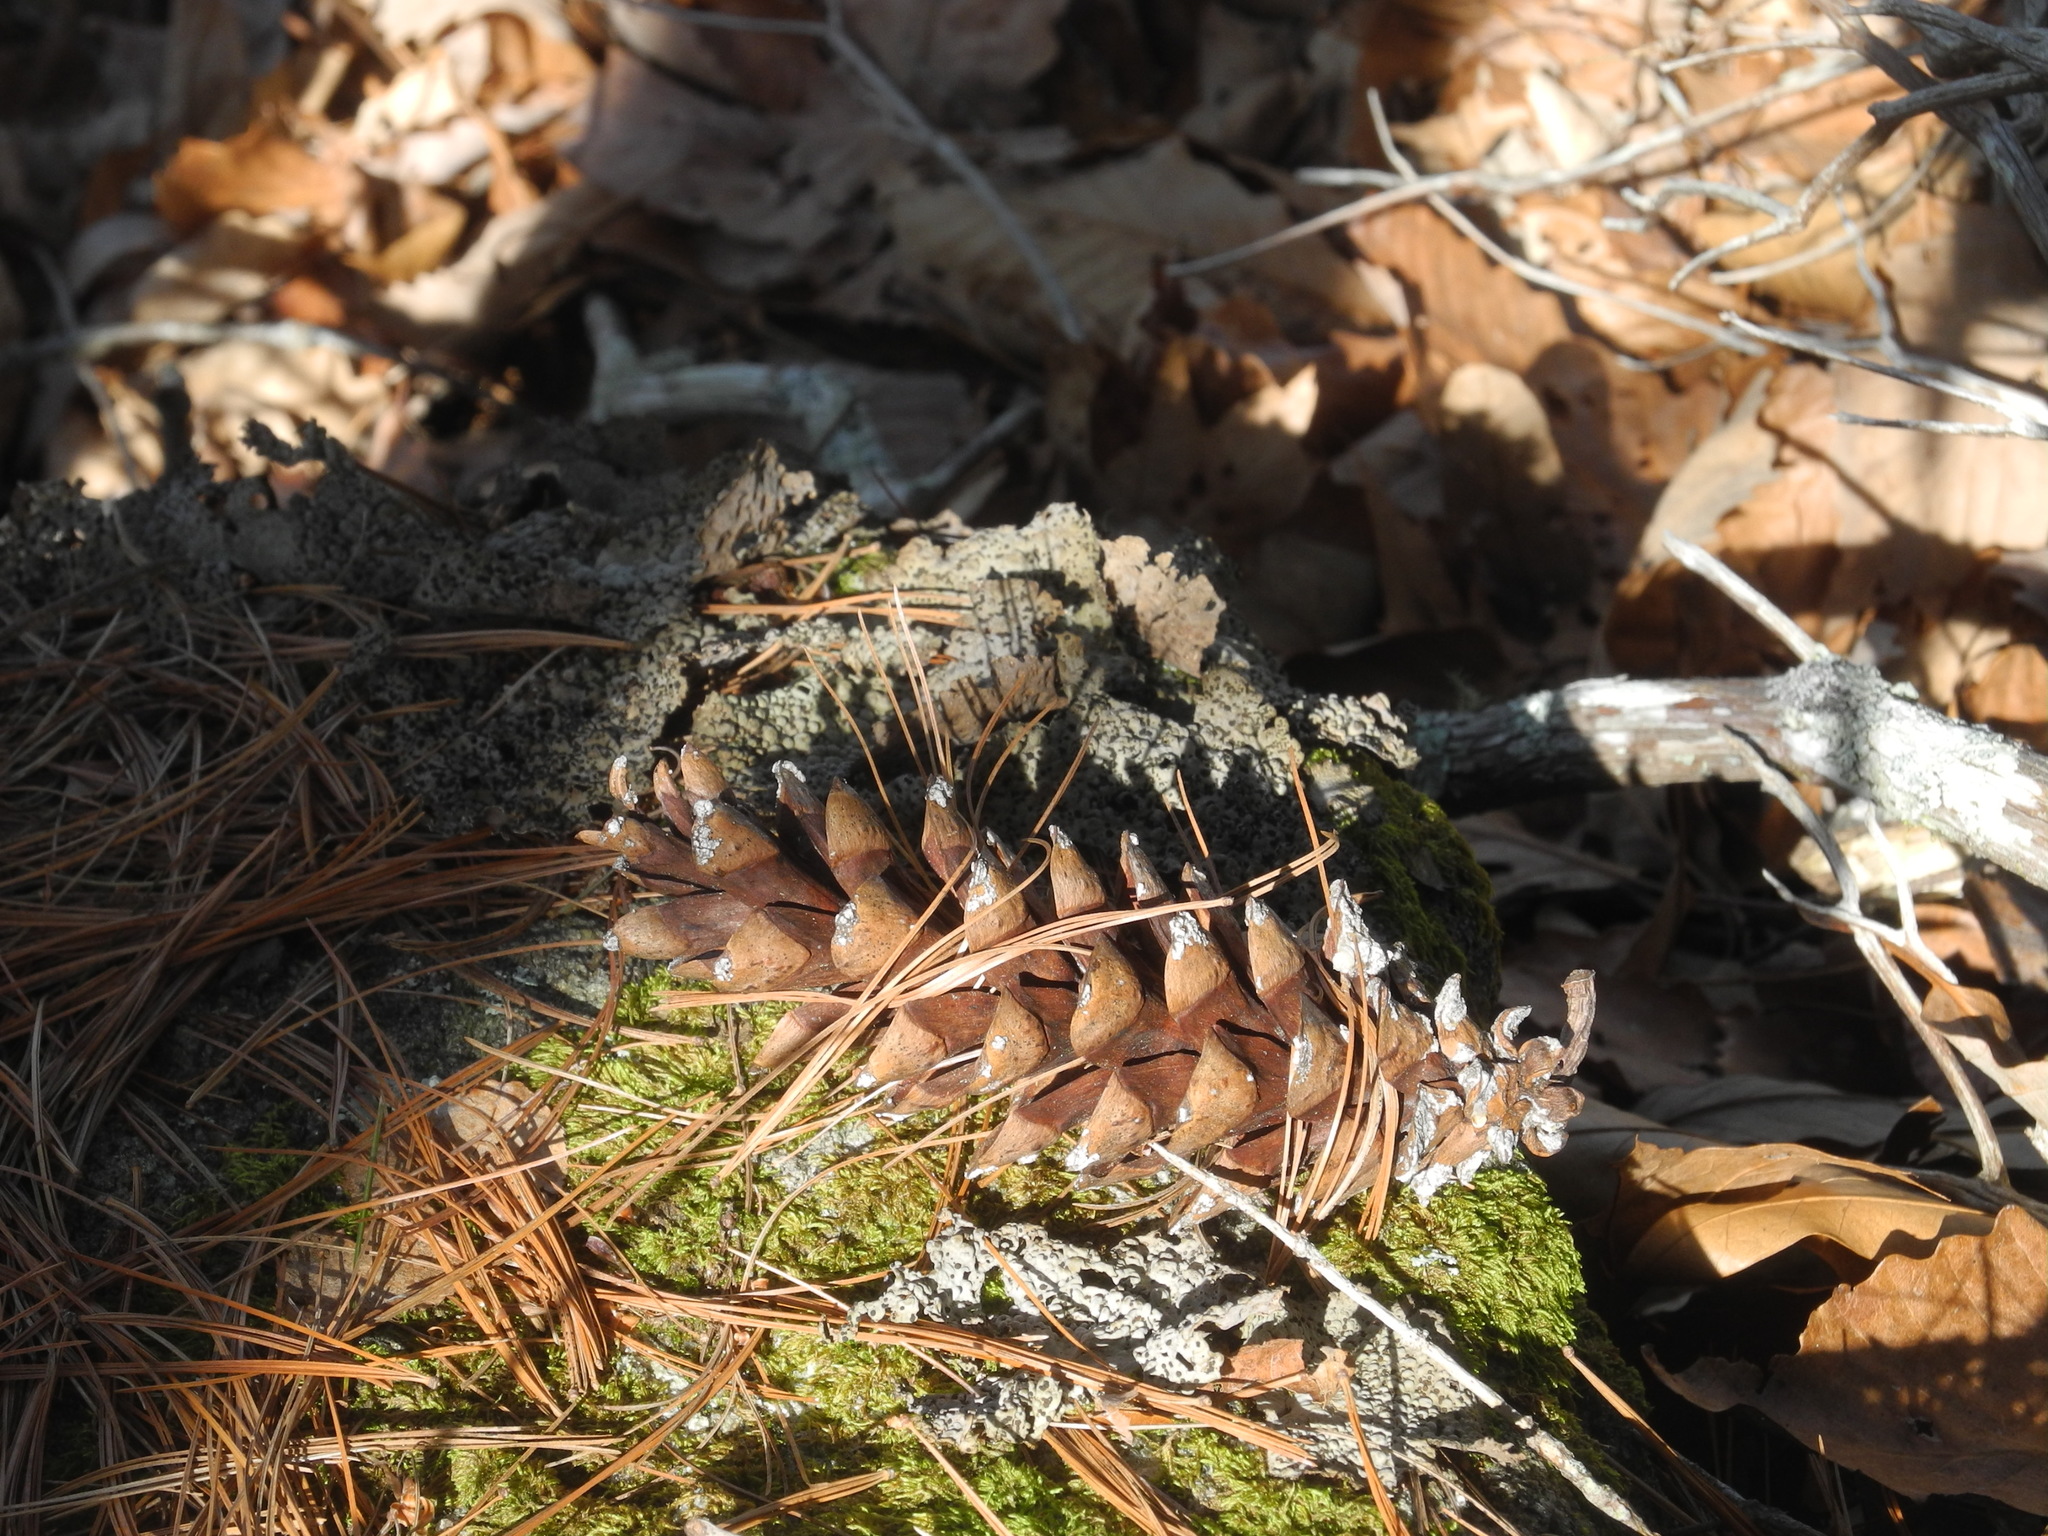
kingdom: Plantae
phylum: Tracheophyta
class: Pinopsida
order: Pinales
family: Pinaceae
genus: Pinus
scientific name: Pinus strobus
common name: Weymouth pine
